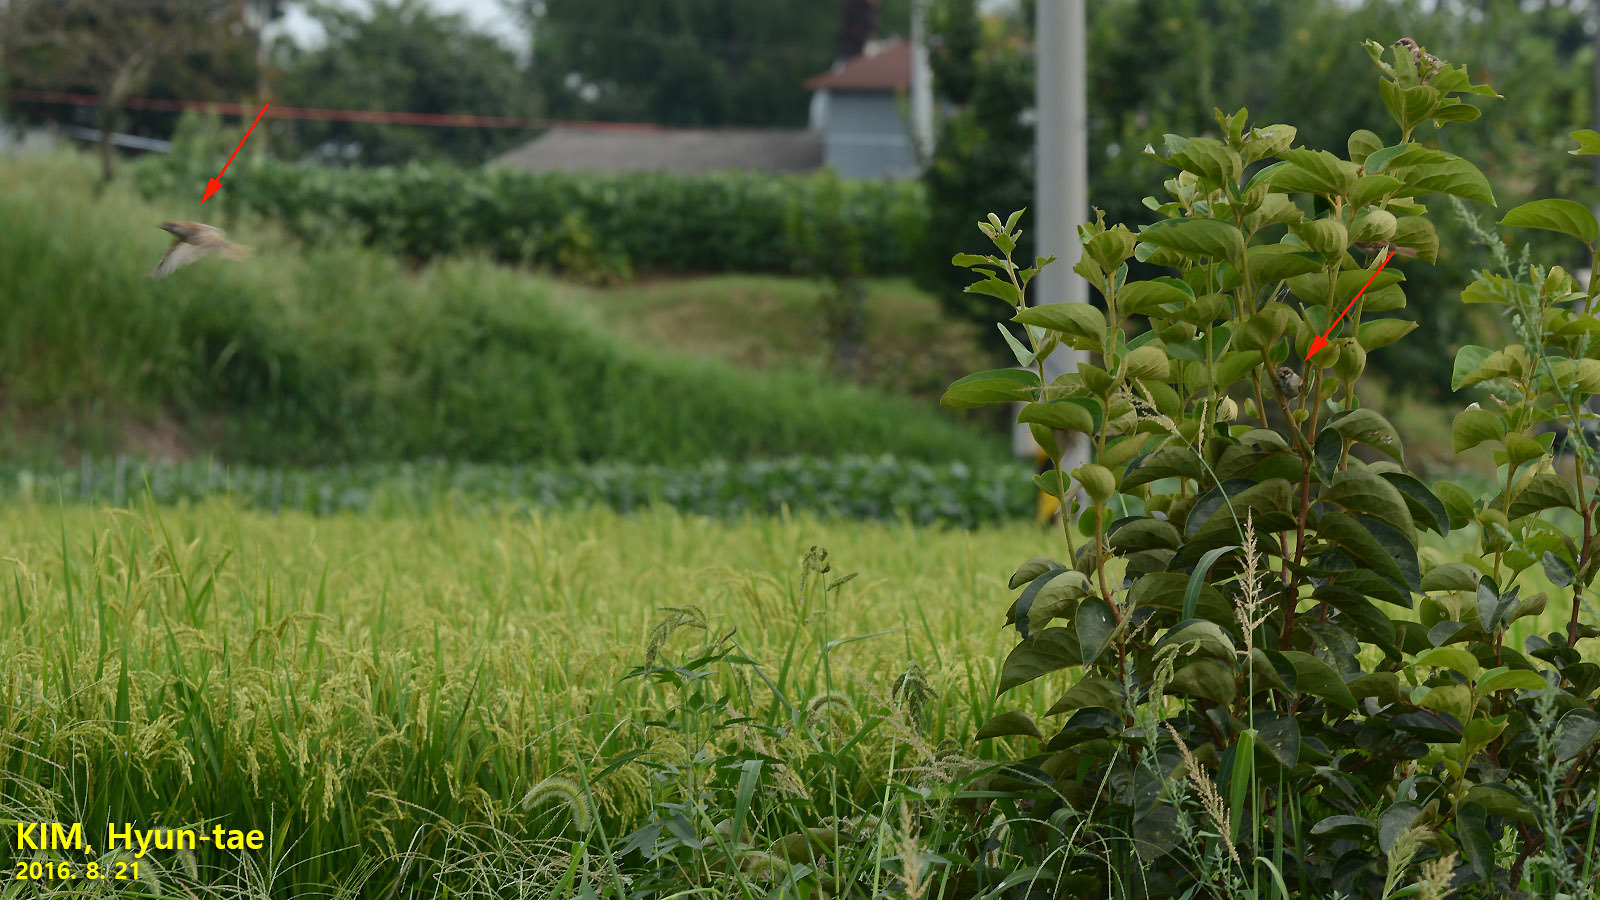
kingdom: Animalia
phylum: Chordata
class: Aves
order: Passeriformes
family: Passeridae
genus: Passer
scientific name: Passer montanus
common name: Eurasian tree sparrow
